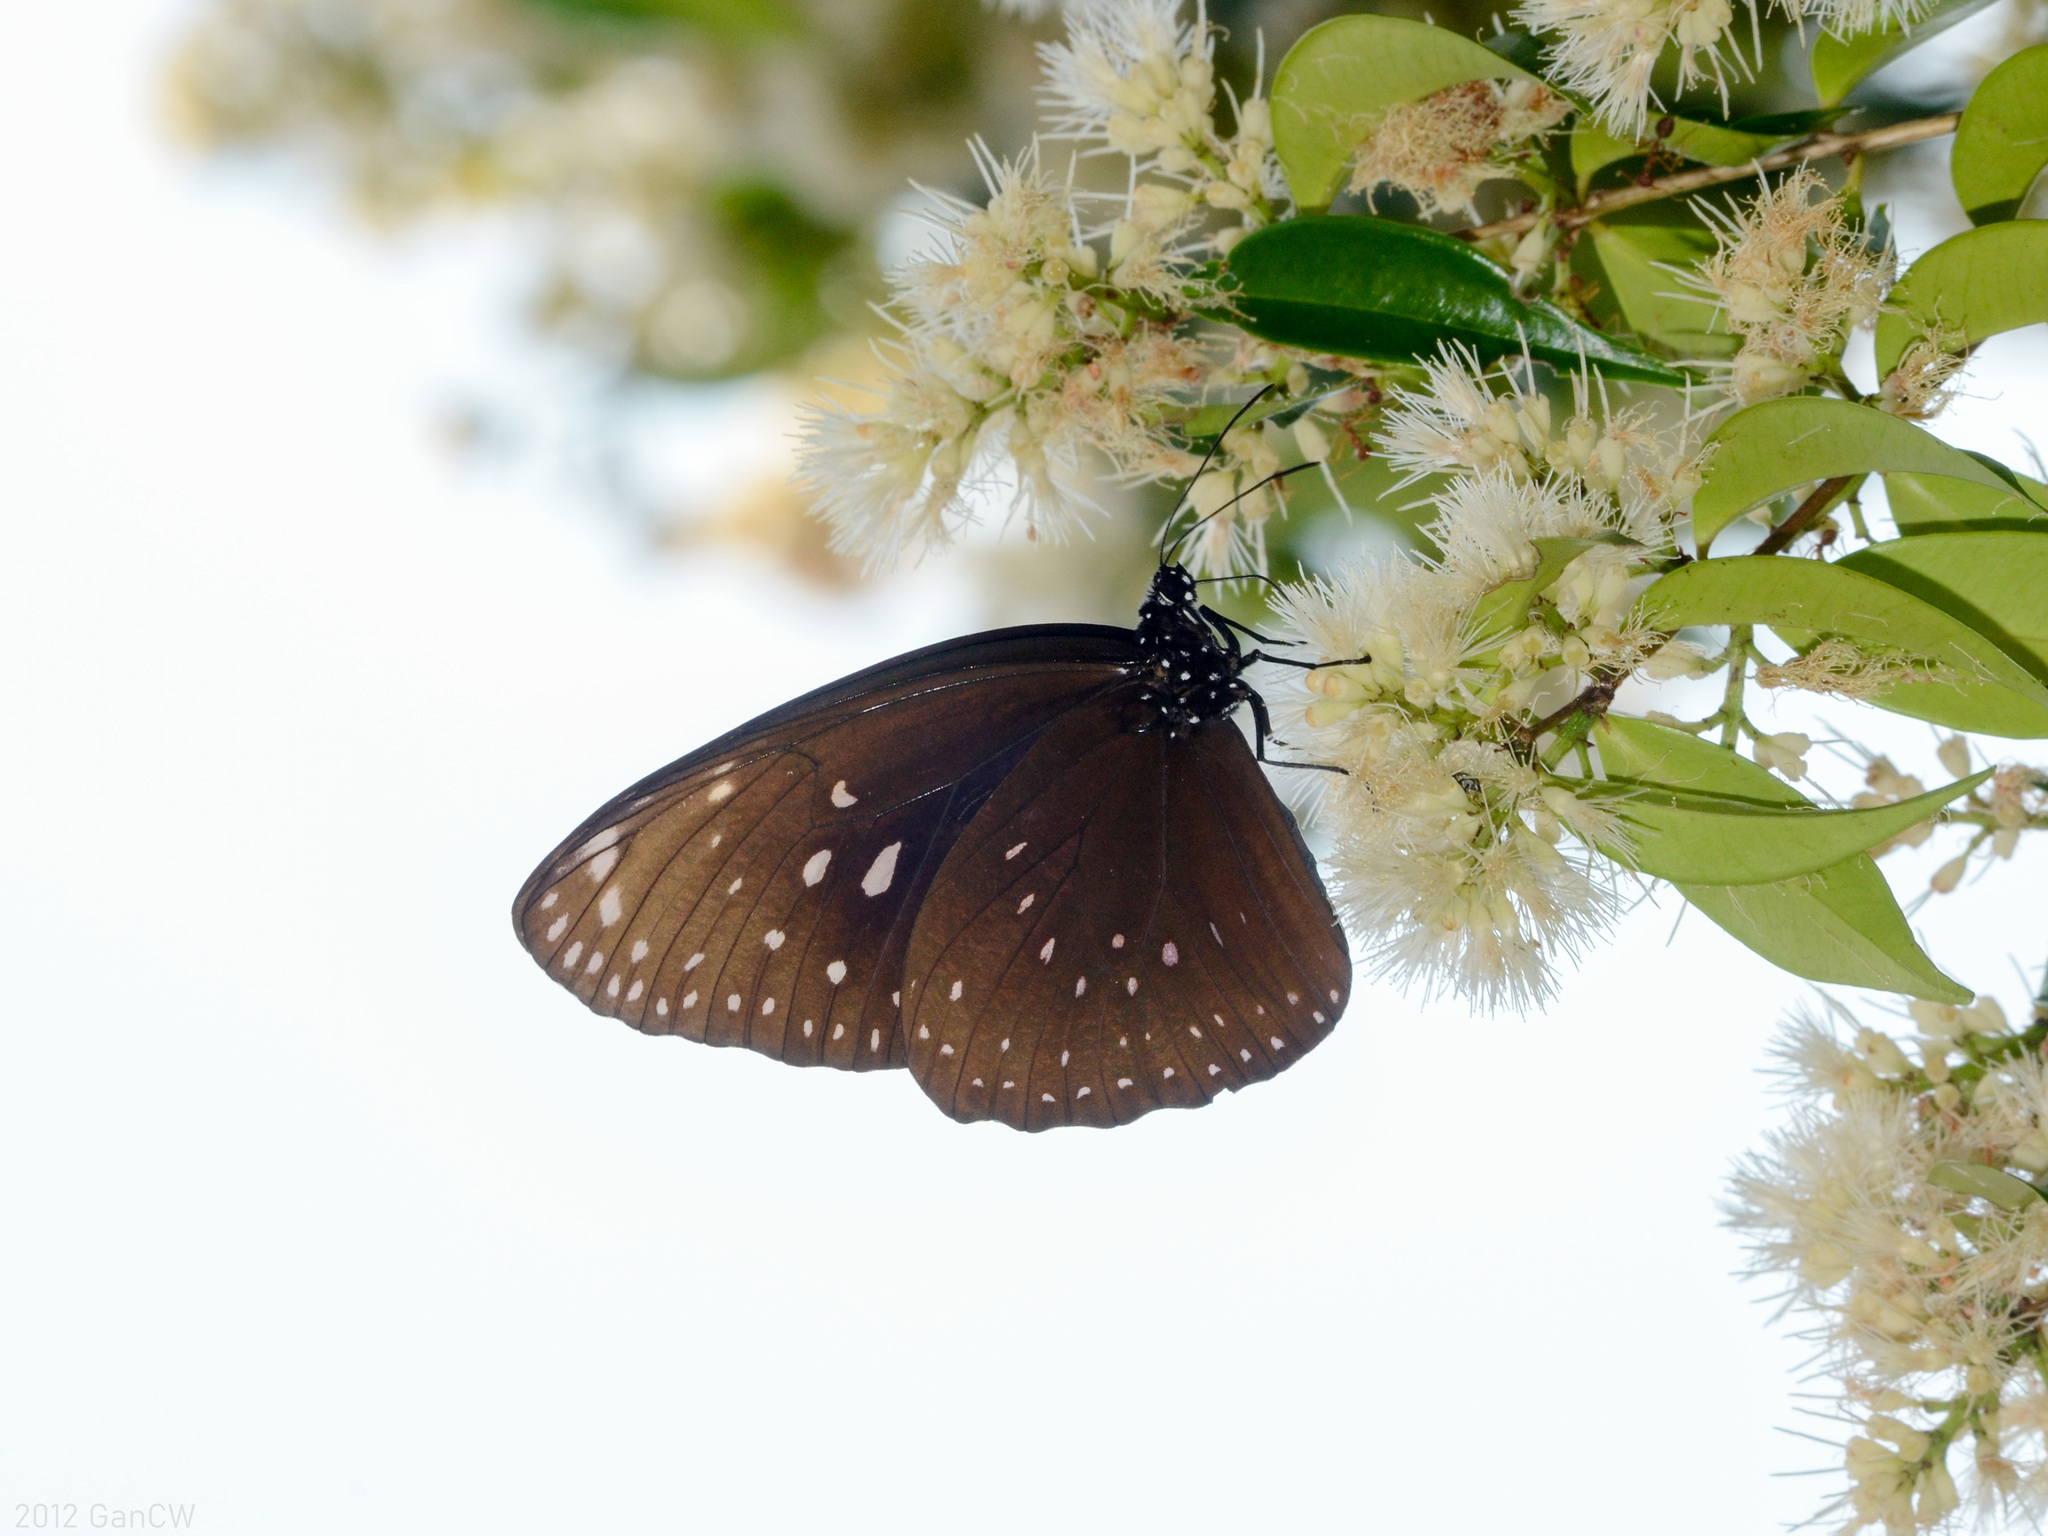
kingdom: Animalia
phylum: Arthropoda
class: Insecta
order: Lepidoptera
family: Nymphalidae
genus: Euploea
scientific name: Euploea phaenareta
